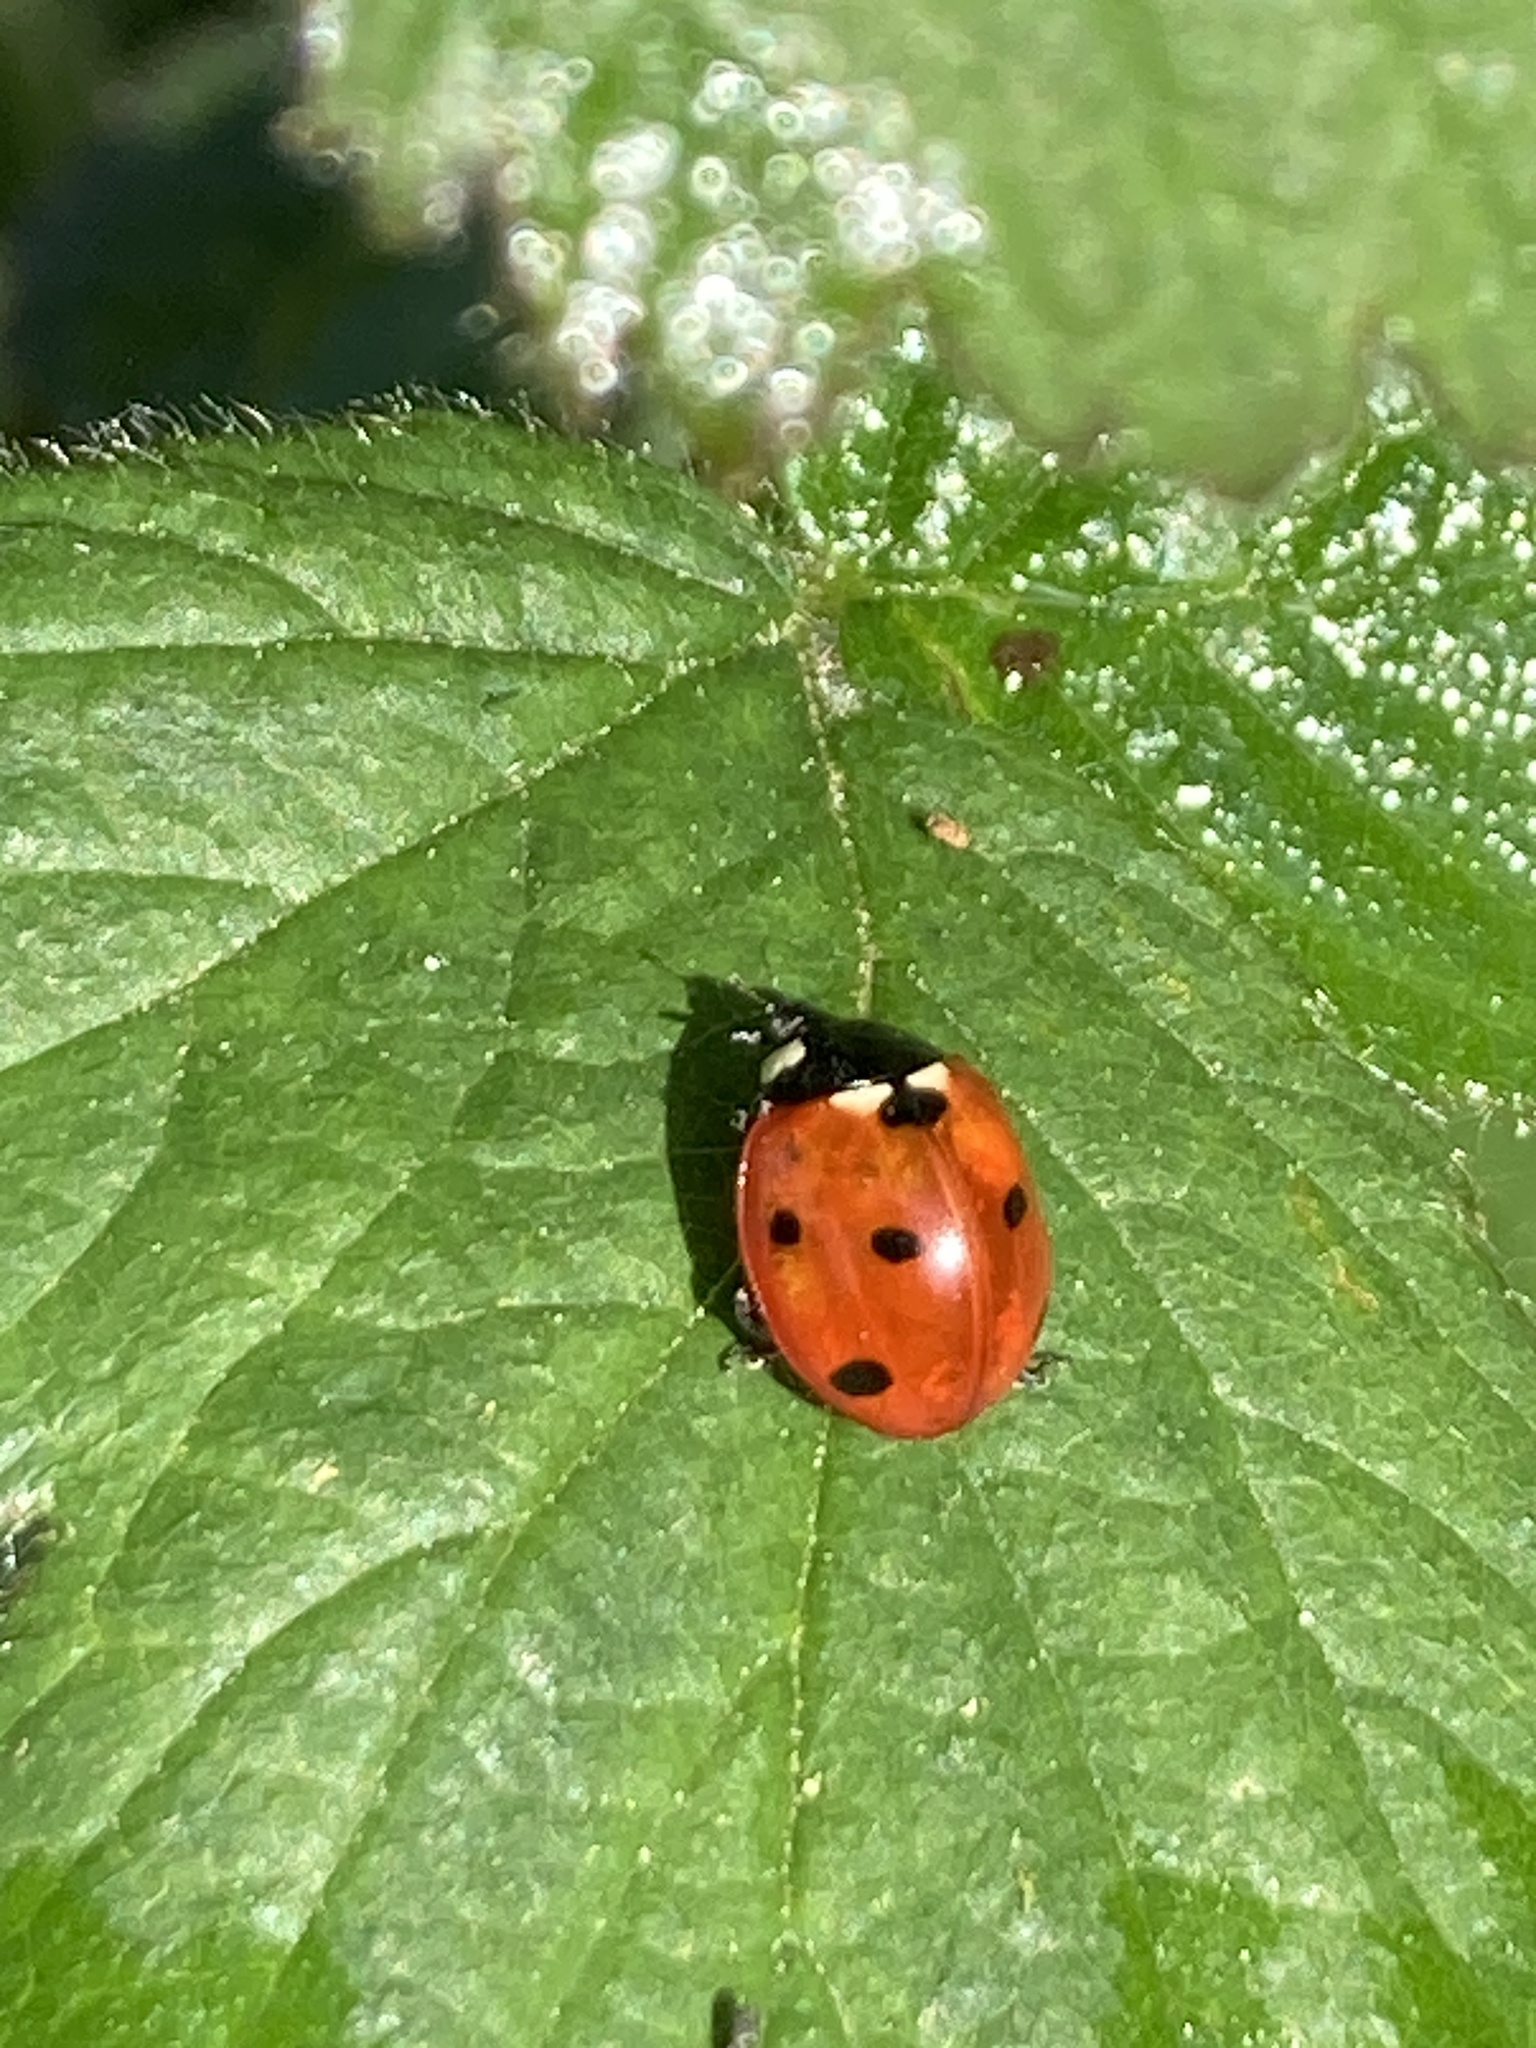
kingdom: Animalia
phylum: Arthropoda
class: Insecta
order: Coleoptera
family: Coccinellidae
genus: Coccinella
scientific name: Coccinella septempunctata
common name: Sevenspotted lady beetle
